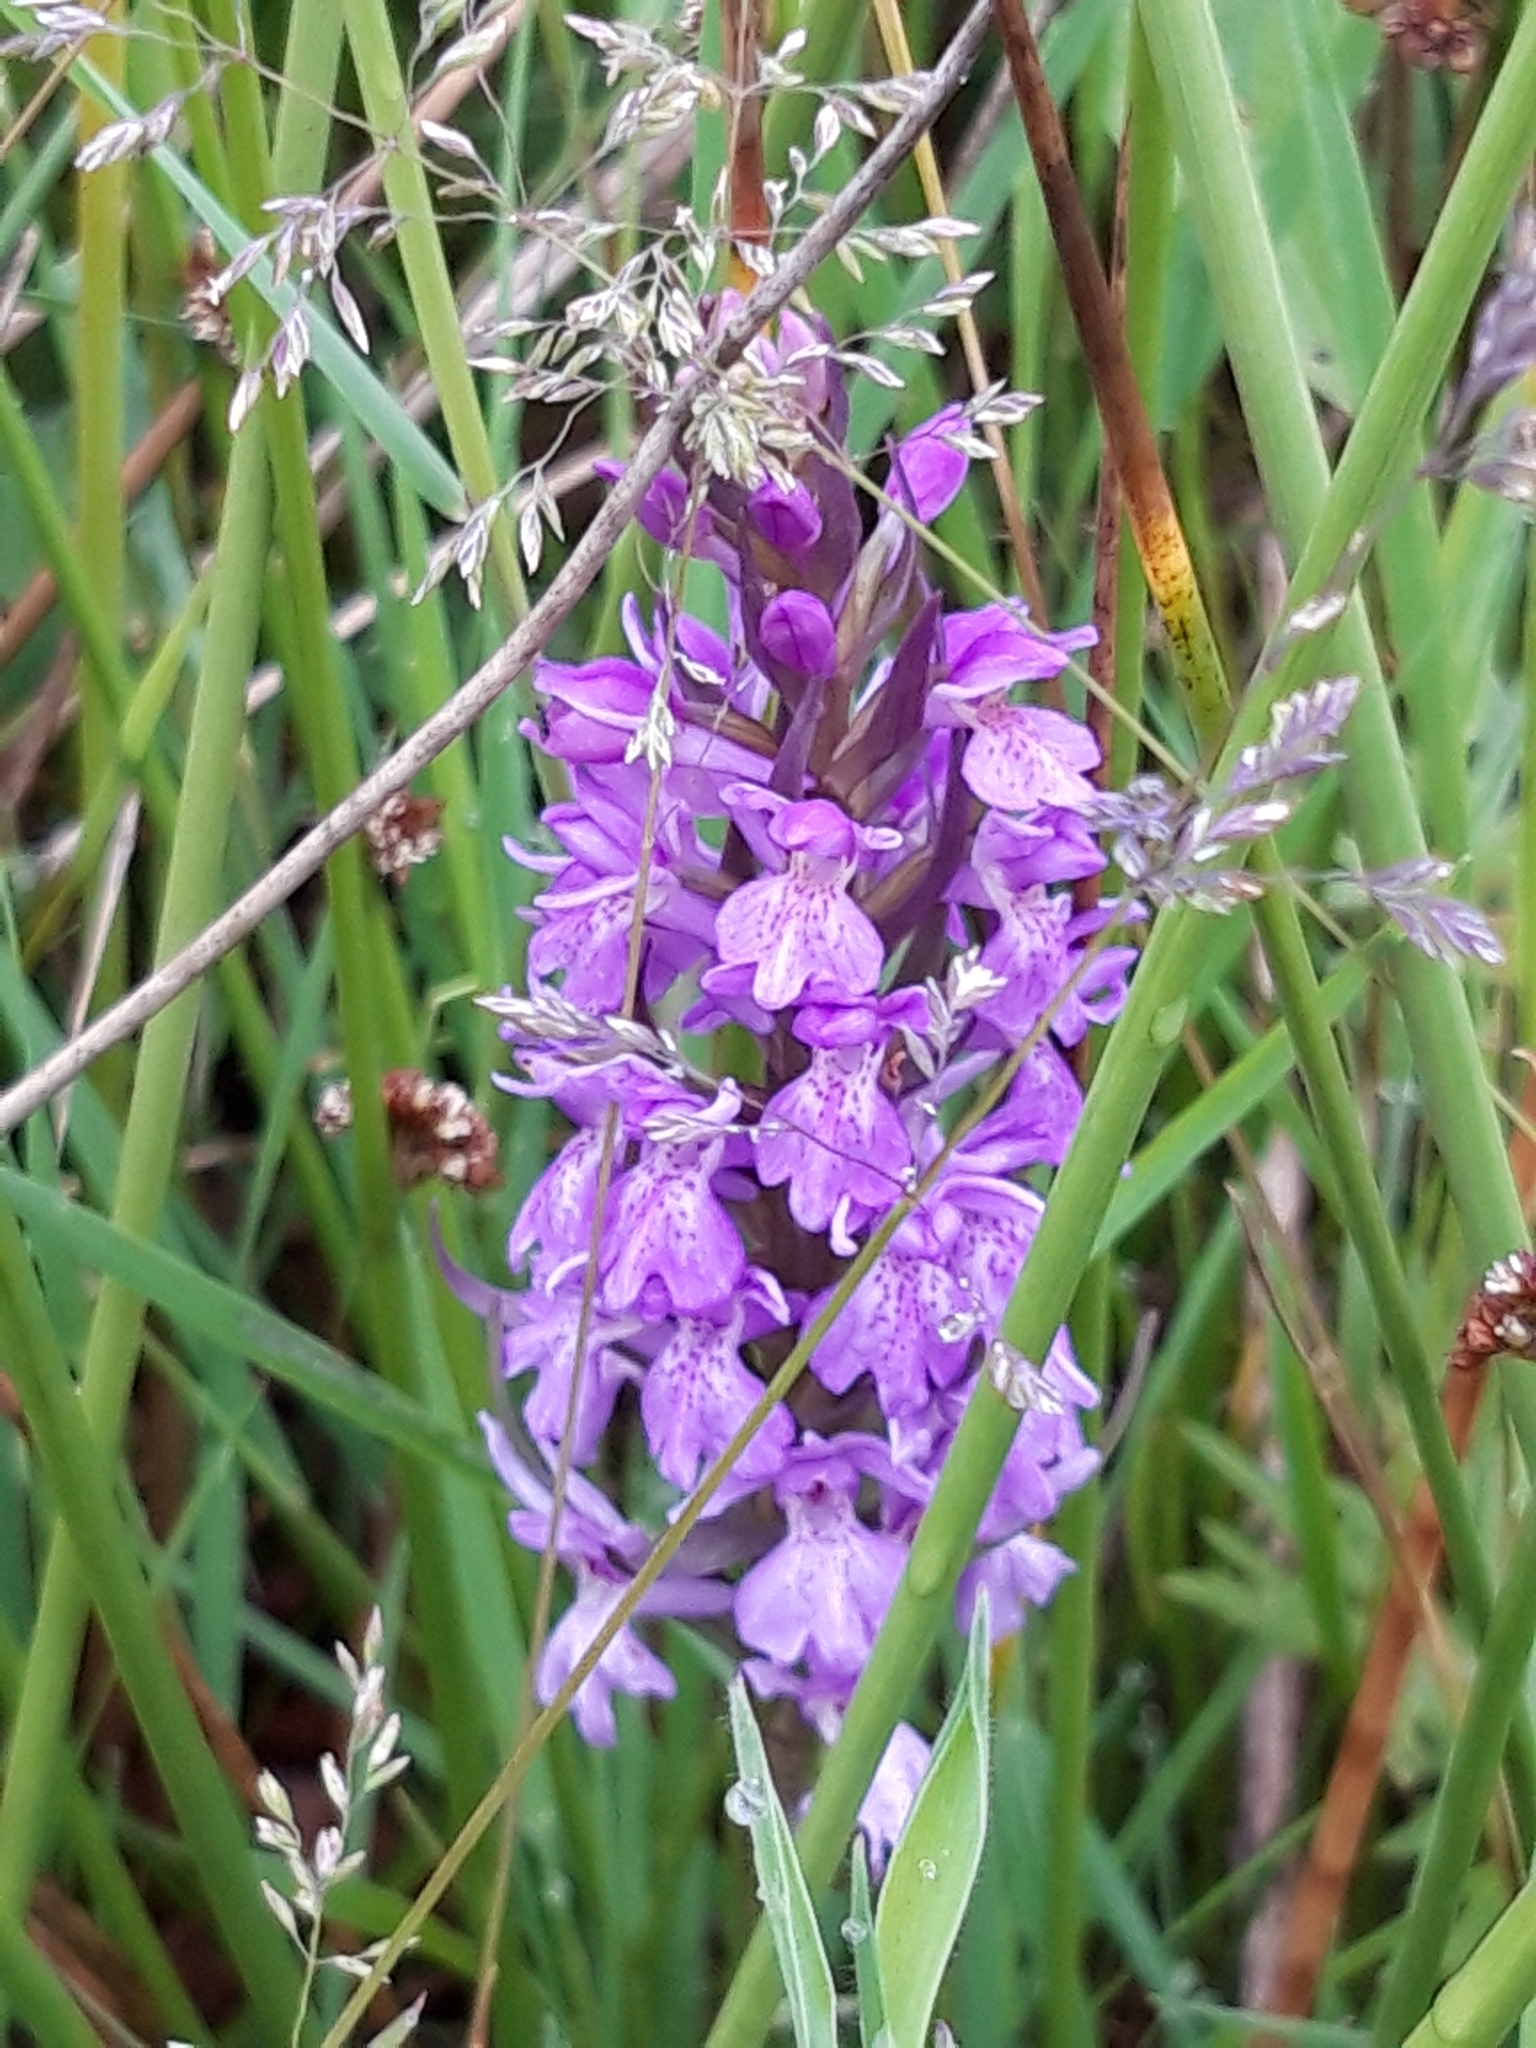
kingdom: Plantae
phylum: Tracheophyta
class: Liliopsida
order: Asparagales
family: Orchidaceae
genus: Dactylorhiza
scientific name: Dactylorhiza majalis
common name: Marsh orchid
